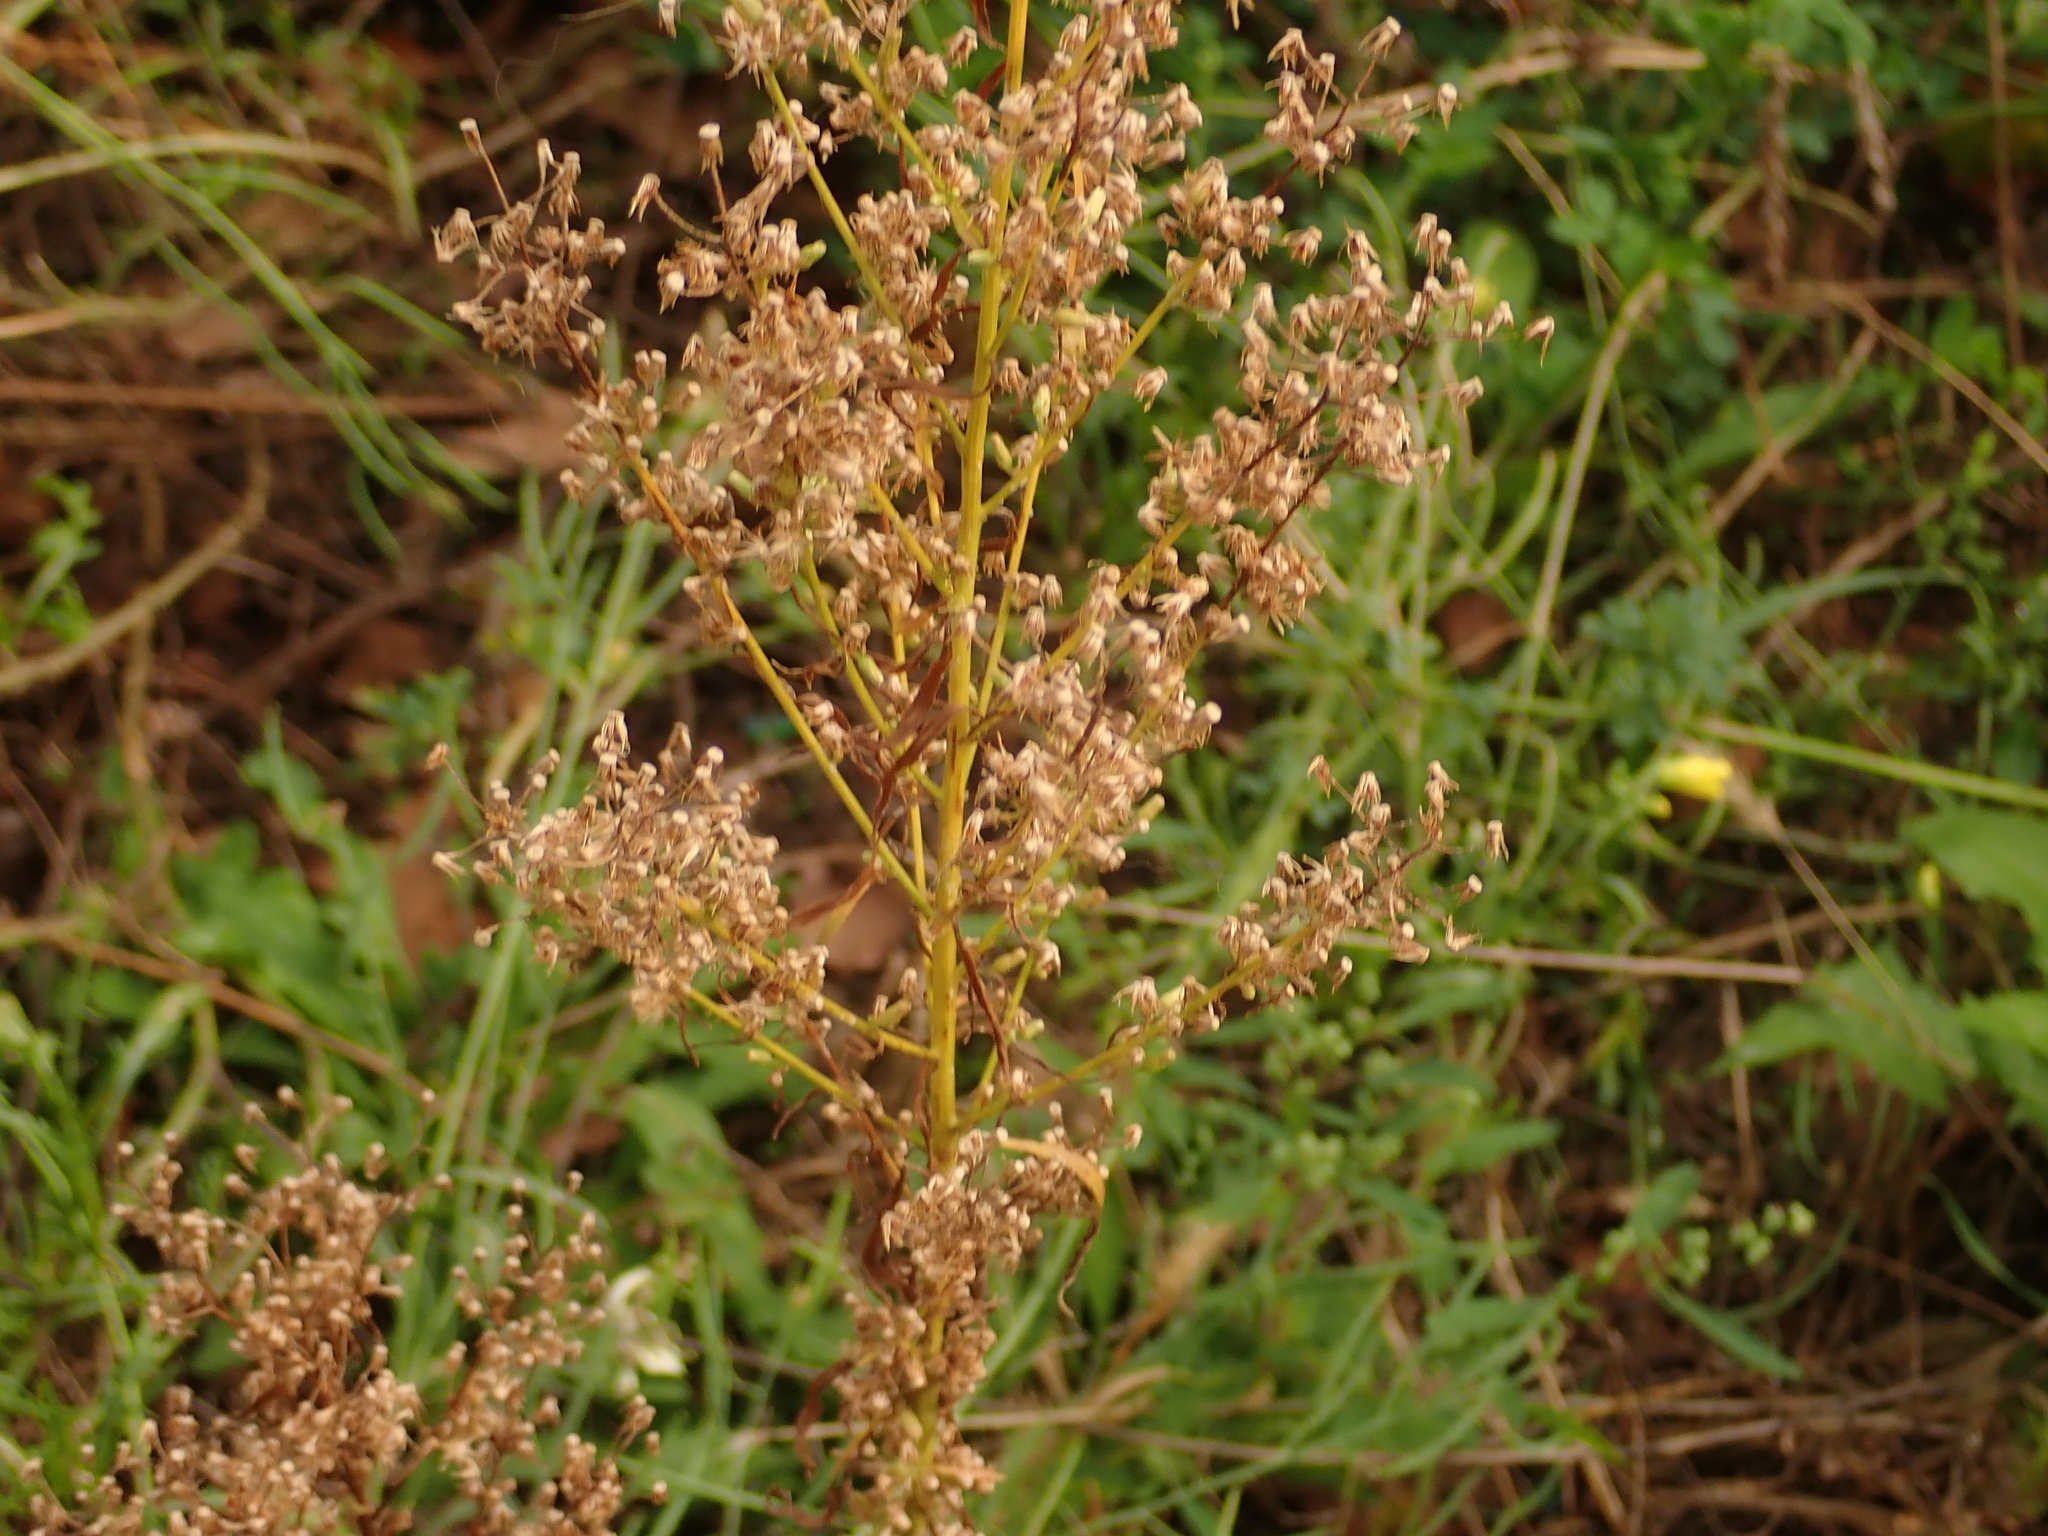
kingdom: Plantae
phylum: Tracheophyta
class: Magnoliopsida
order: Asterales
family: Asteraceae
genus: Erigeron
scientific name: Erigeron canadensis
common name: Canadian fleabane
